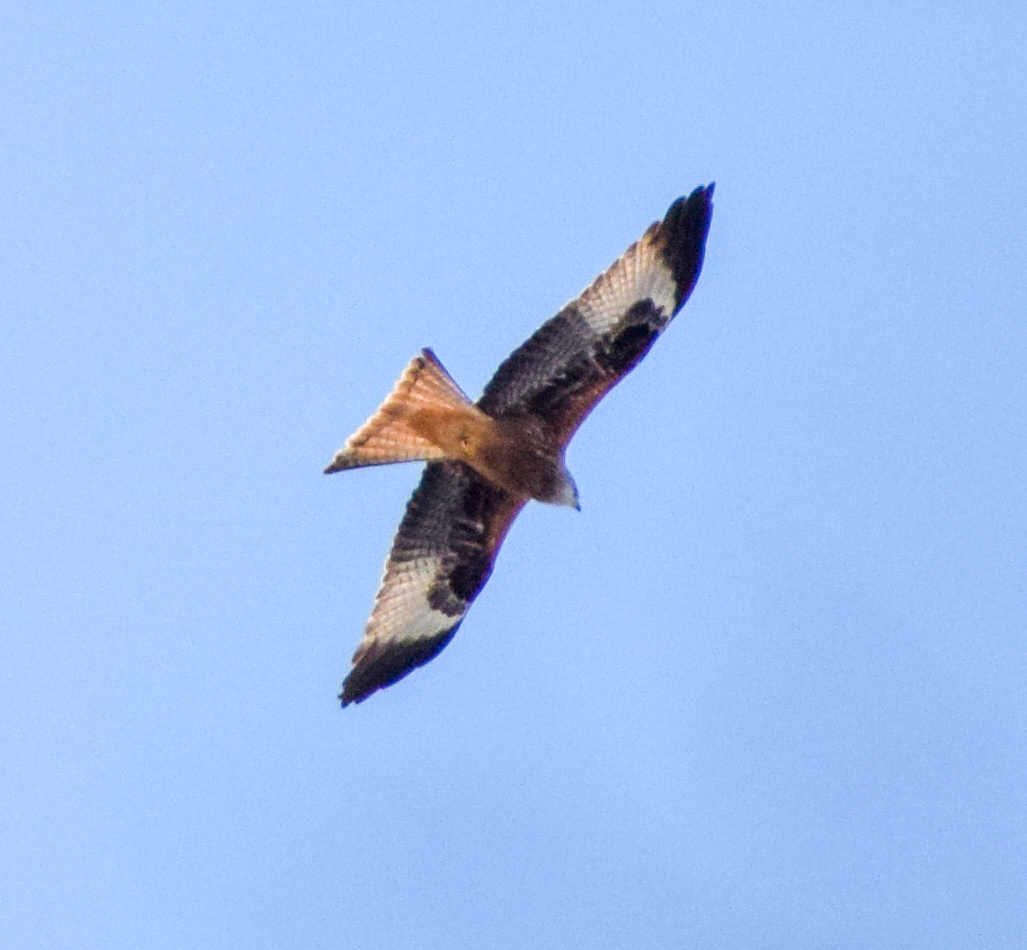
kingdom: Animalia
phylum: Chordata
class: Aves
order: Accipitriformes
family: Accipitridae
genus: Milvus
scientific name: Milvus milvus
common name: Red kite
